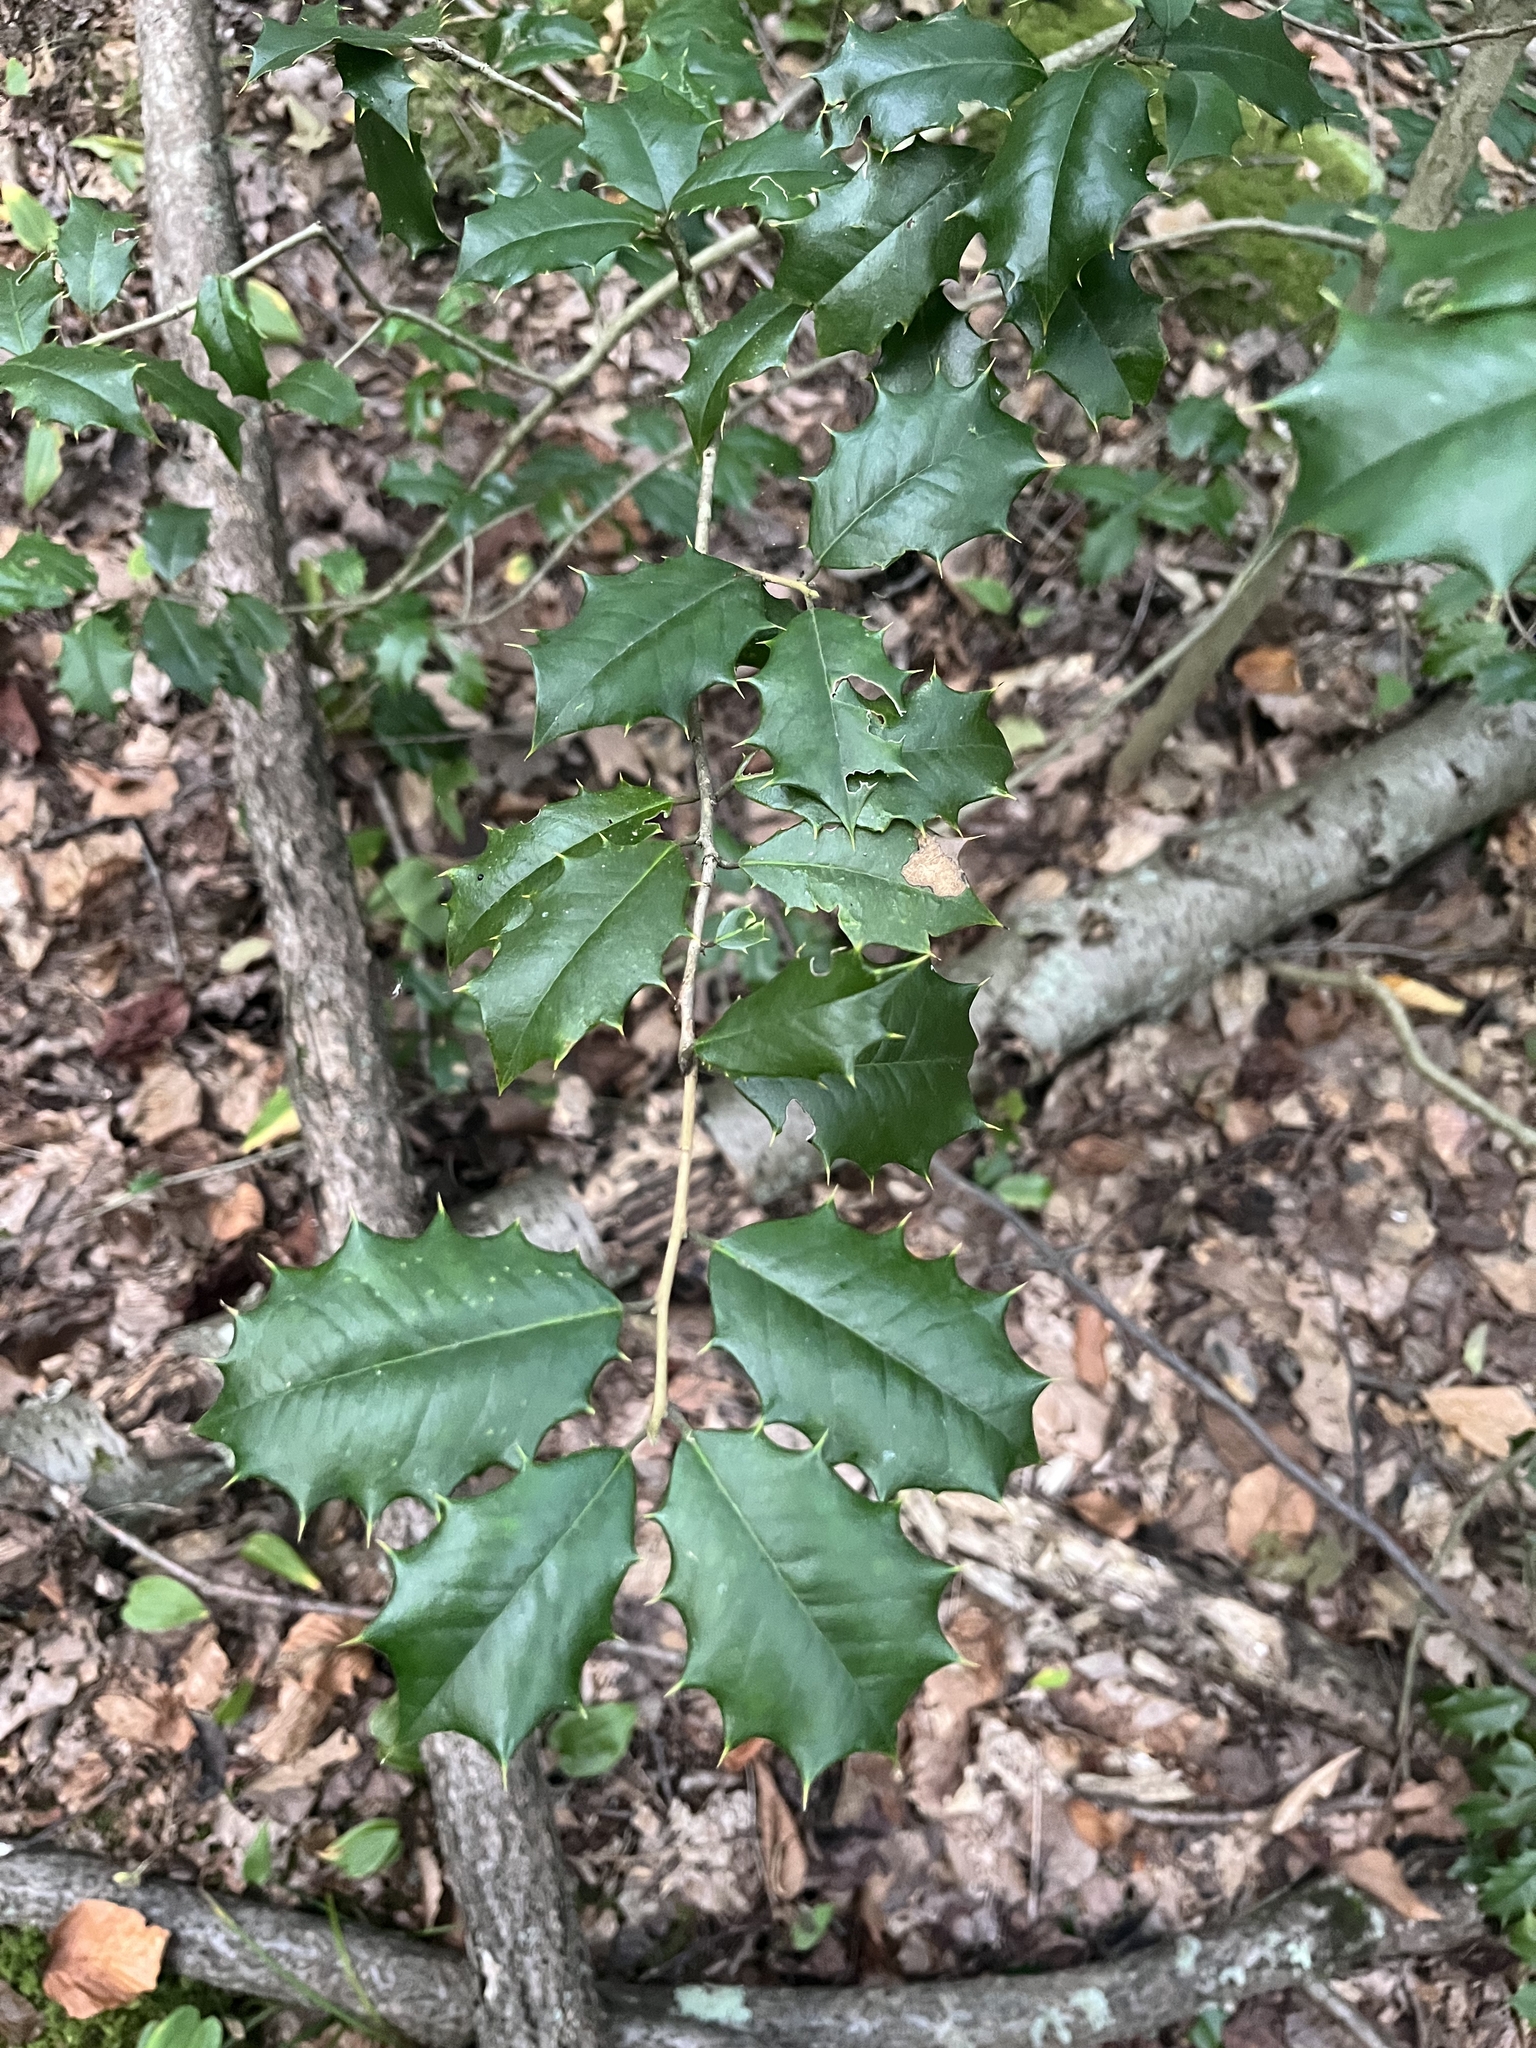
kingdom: Plantae
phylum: Tracheophyta
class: Magnoliopsida
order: Aquifoliales
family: Aquifoliaceae
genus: Ilex
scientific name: Ilex opaca
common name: American holly
